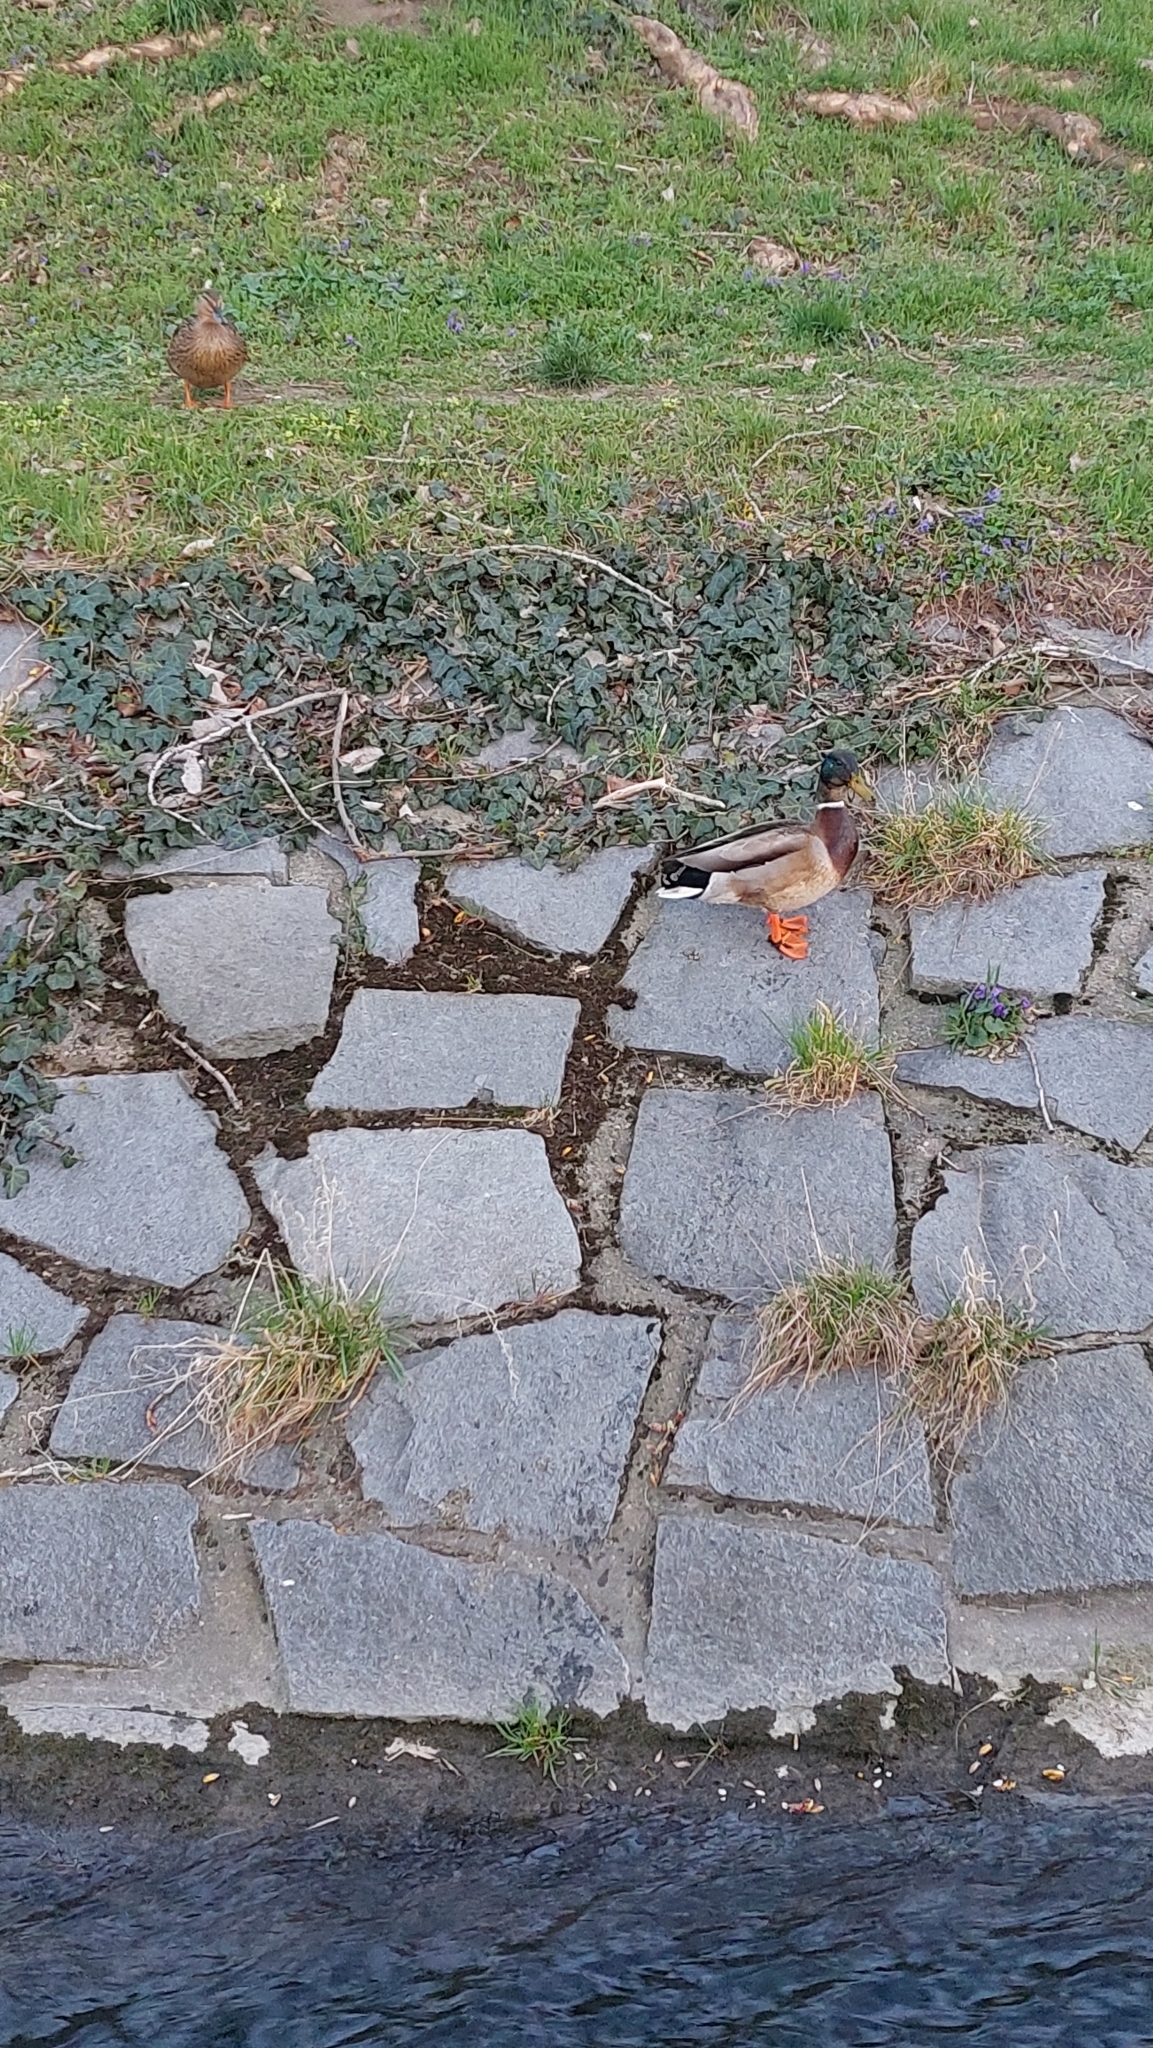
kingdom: Animalia
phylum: Chordata
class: Aves
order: Anseriformes
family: Anatidae
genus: Anas
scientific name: Anas platyrhynchos
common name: Mallard
